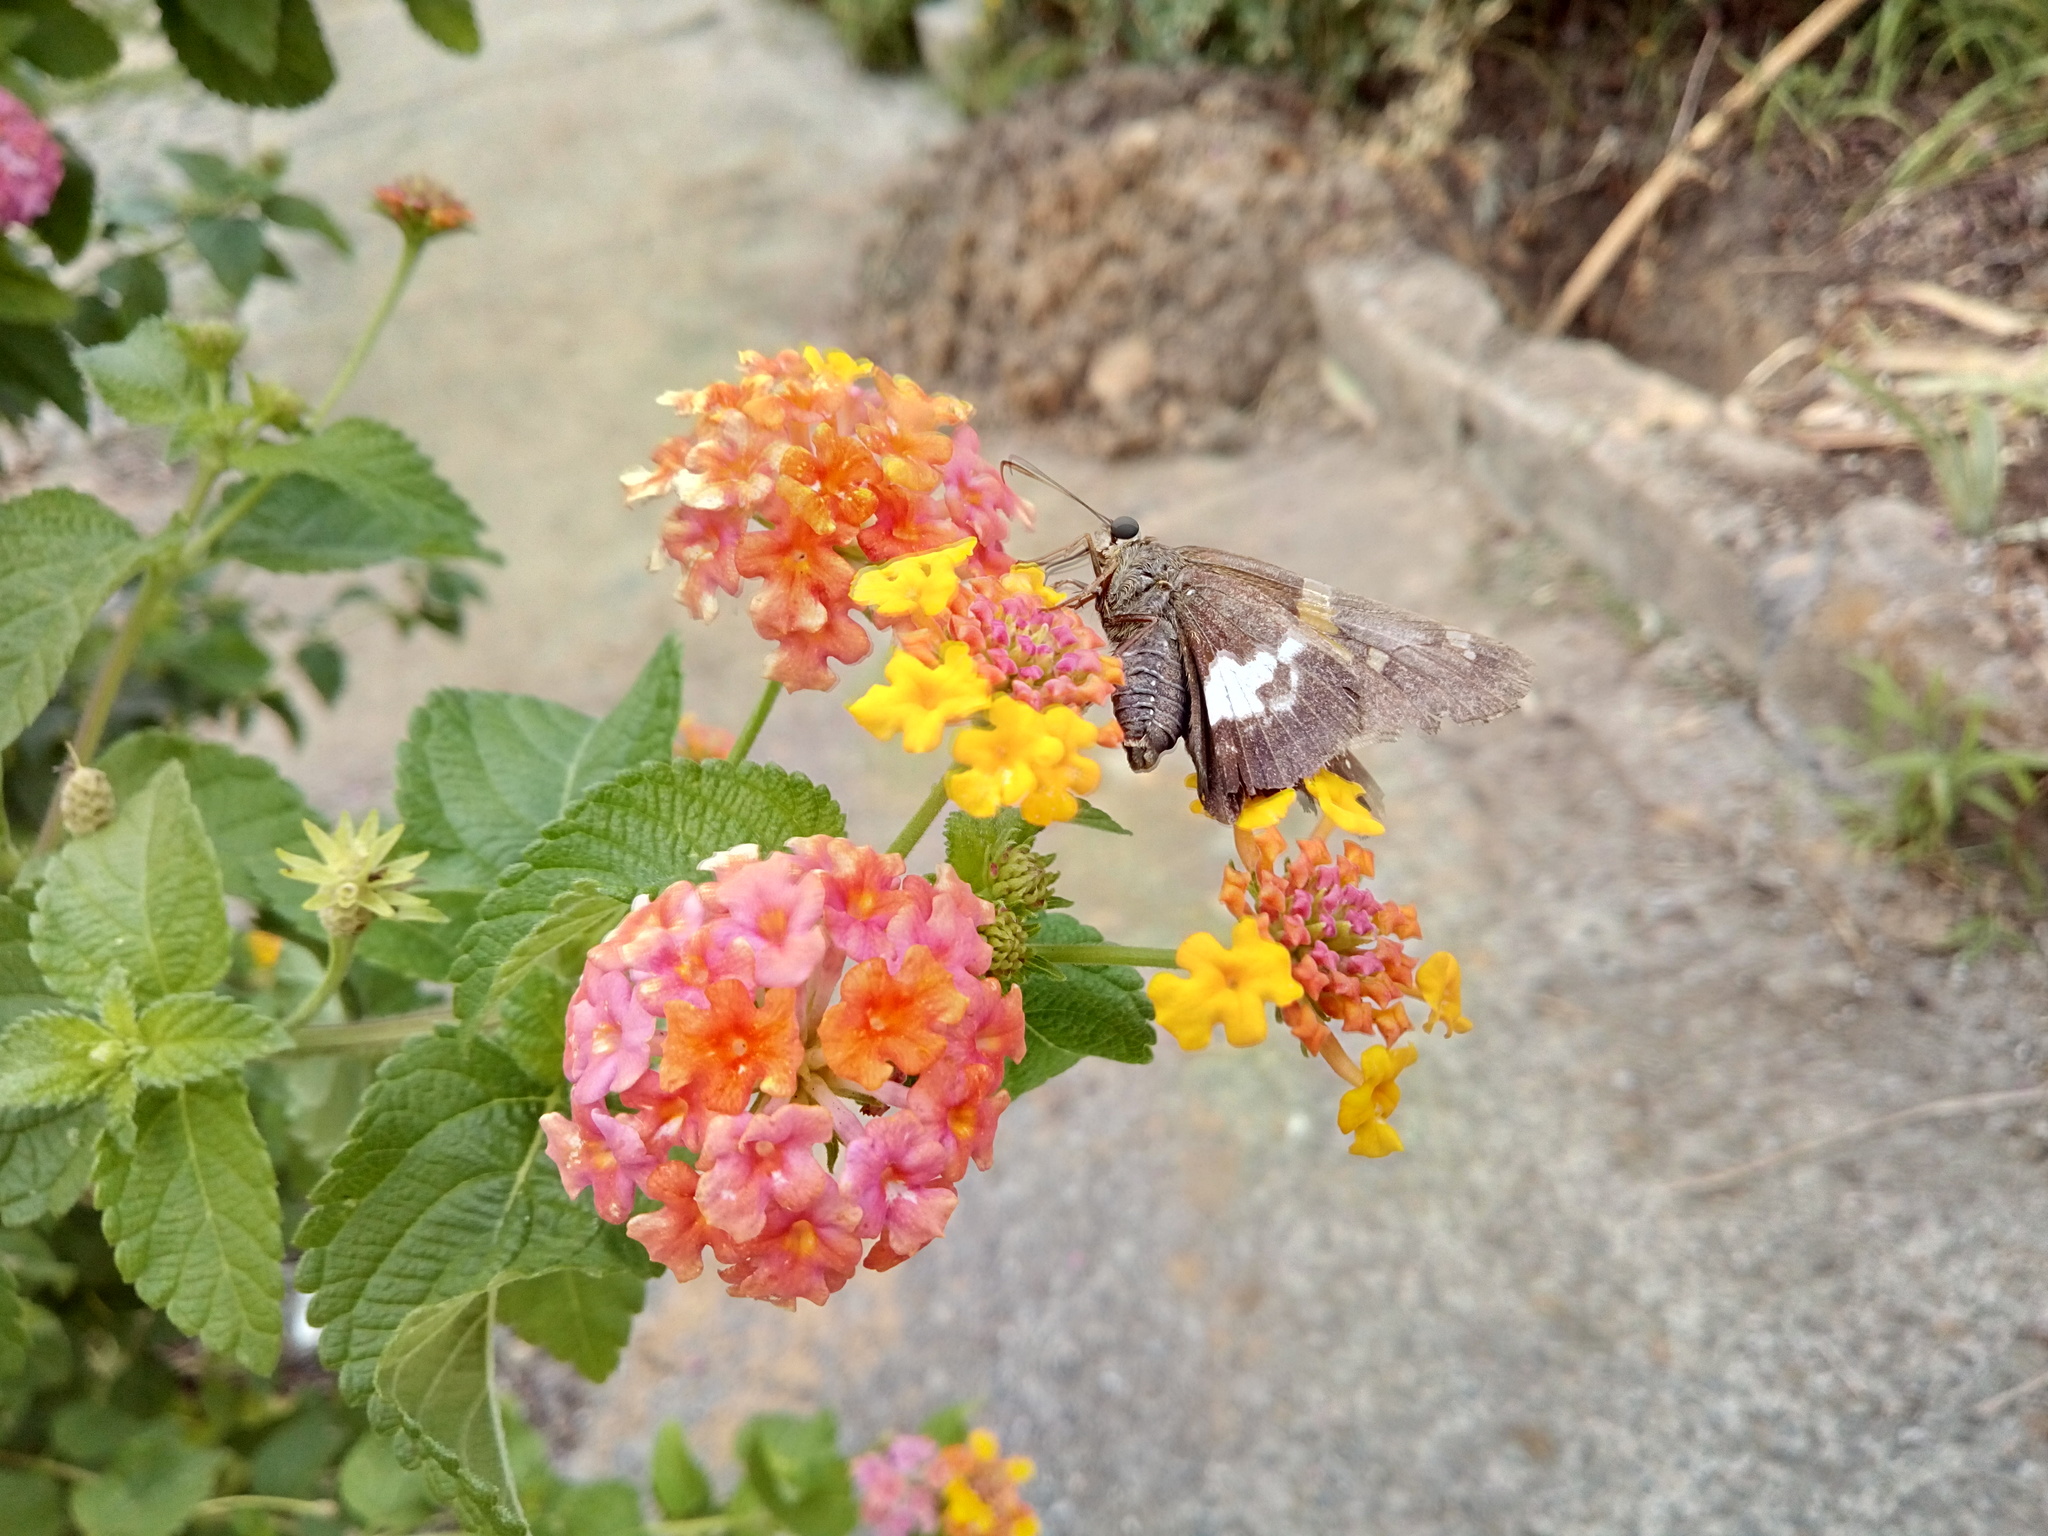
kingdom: Animalia
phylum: Arthropoda
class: Insecta
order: Lepidoptera
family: Hesperiidae
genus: Epargyreus
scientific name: Epargyreus clarus
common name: Silver-spotted skipper
